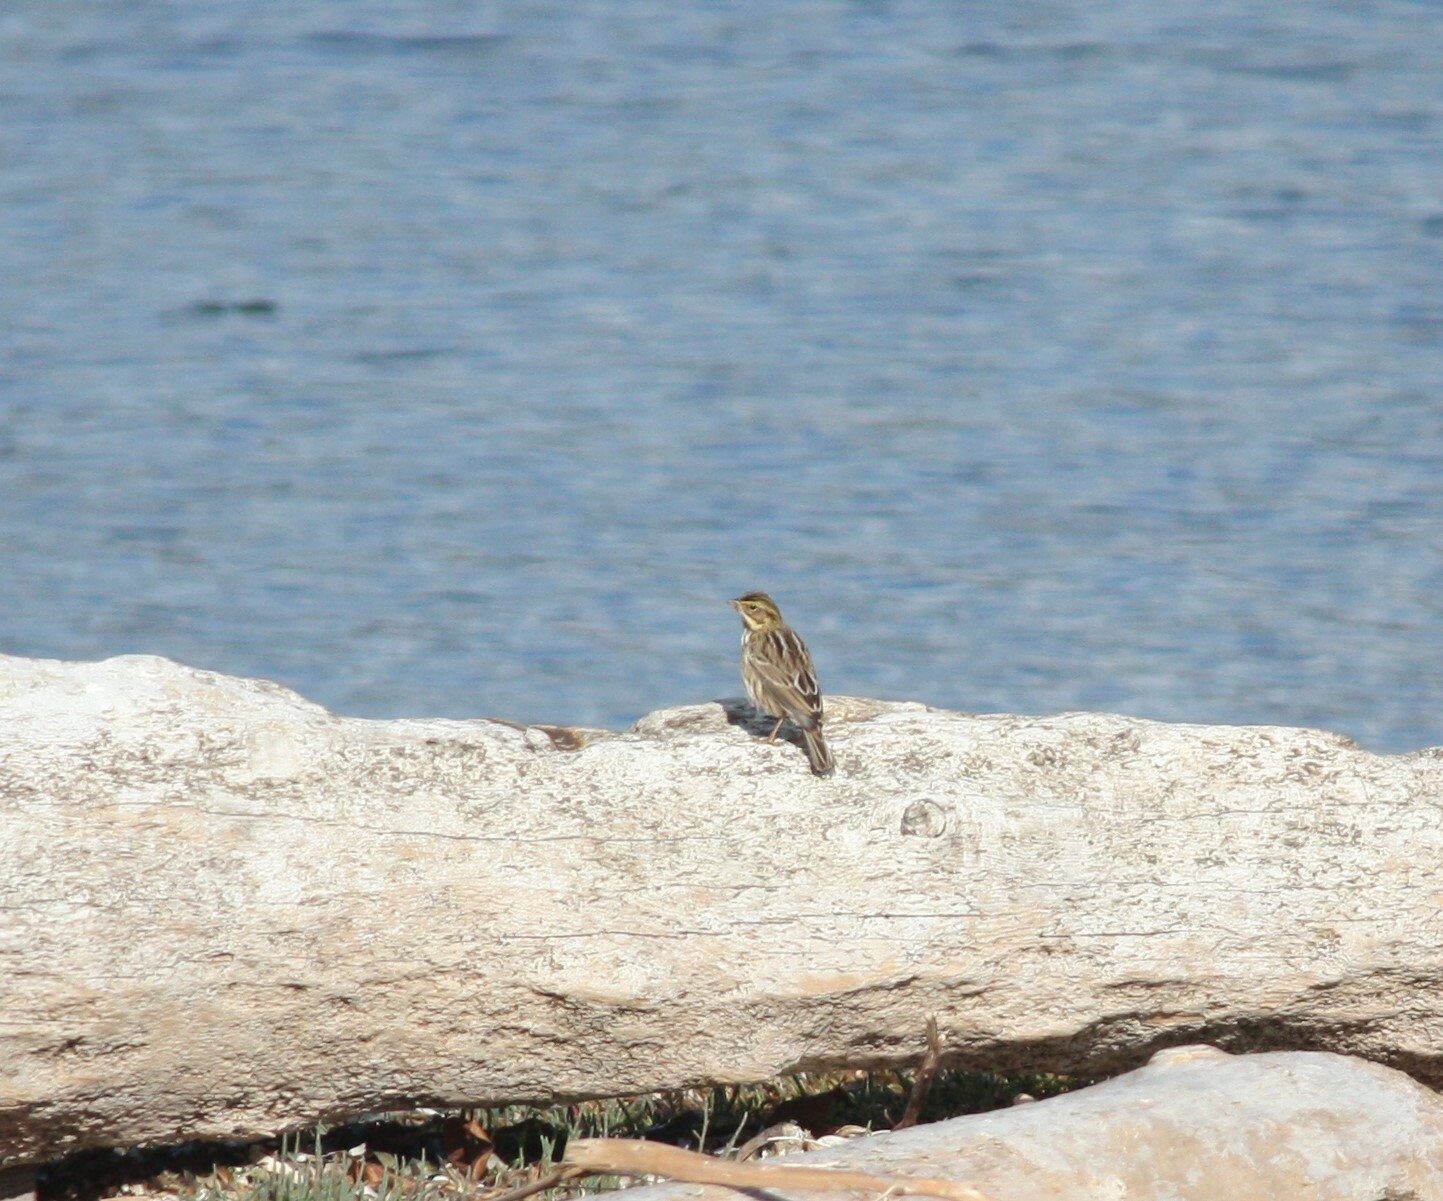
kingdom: Animalia
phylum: Chordata
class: Aves
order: Passeriformes
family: Passerellidae
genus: Passerculus
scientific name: Passerculus sandwichensis
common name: Savannah sparrow
